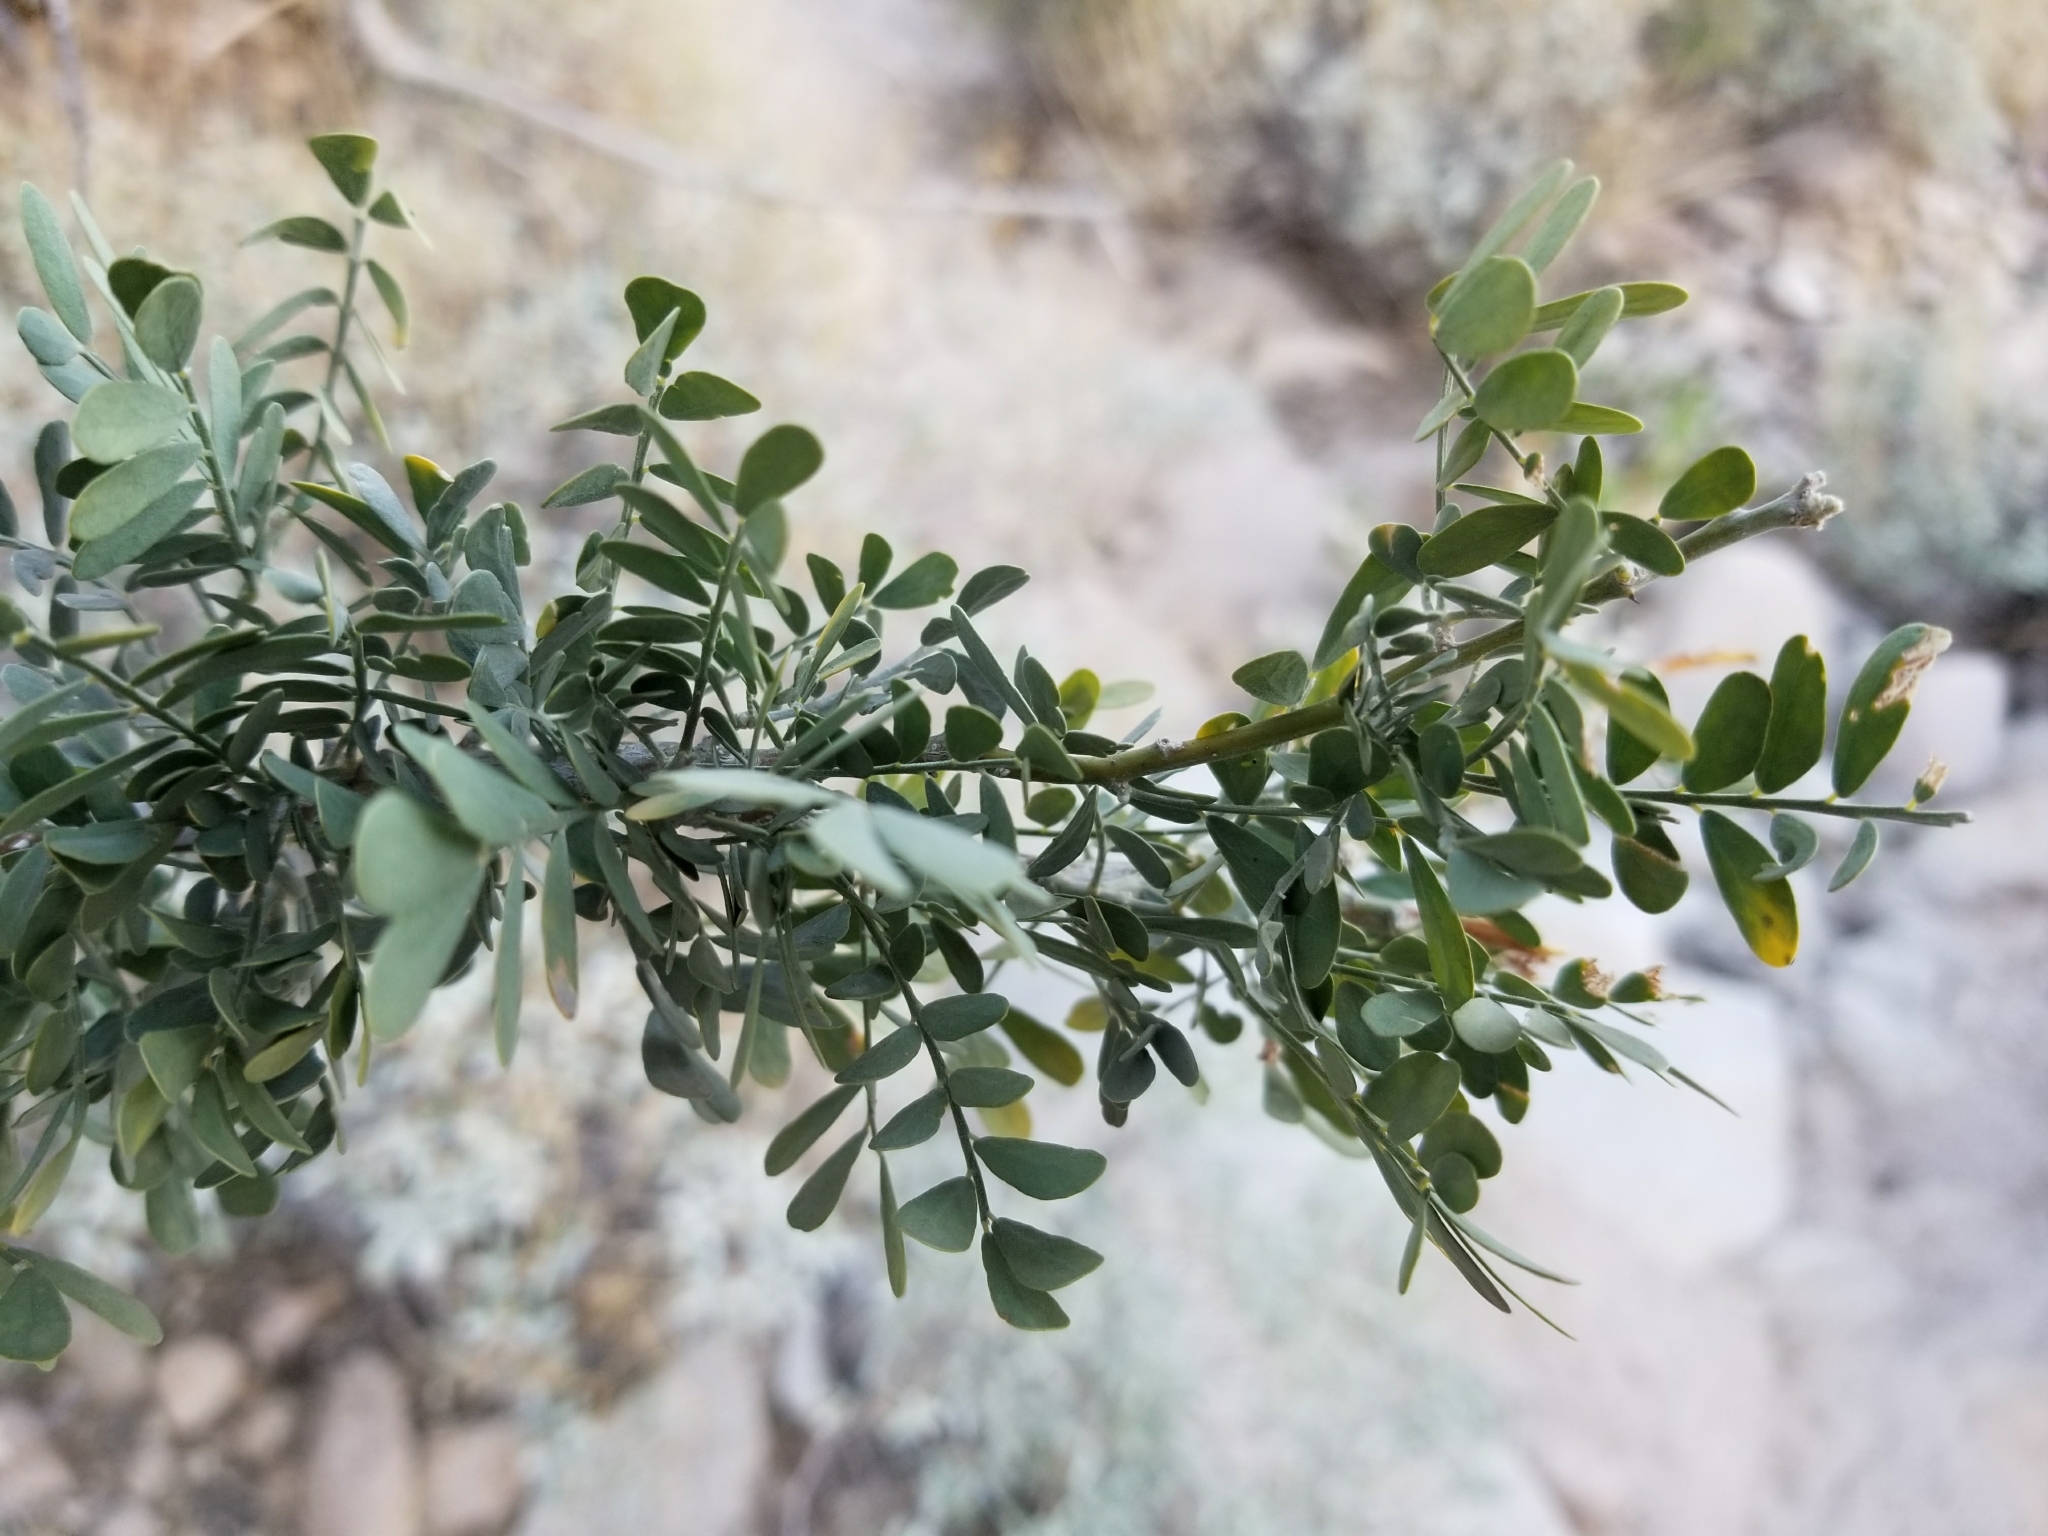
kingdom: Plantae
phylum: Tracheophyta
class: Magnoliopsida
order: Fabales
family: Fabaceae
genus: Olneya
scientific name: Olneya tesota
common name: Desert ironwood
